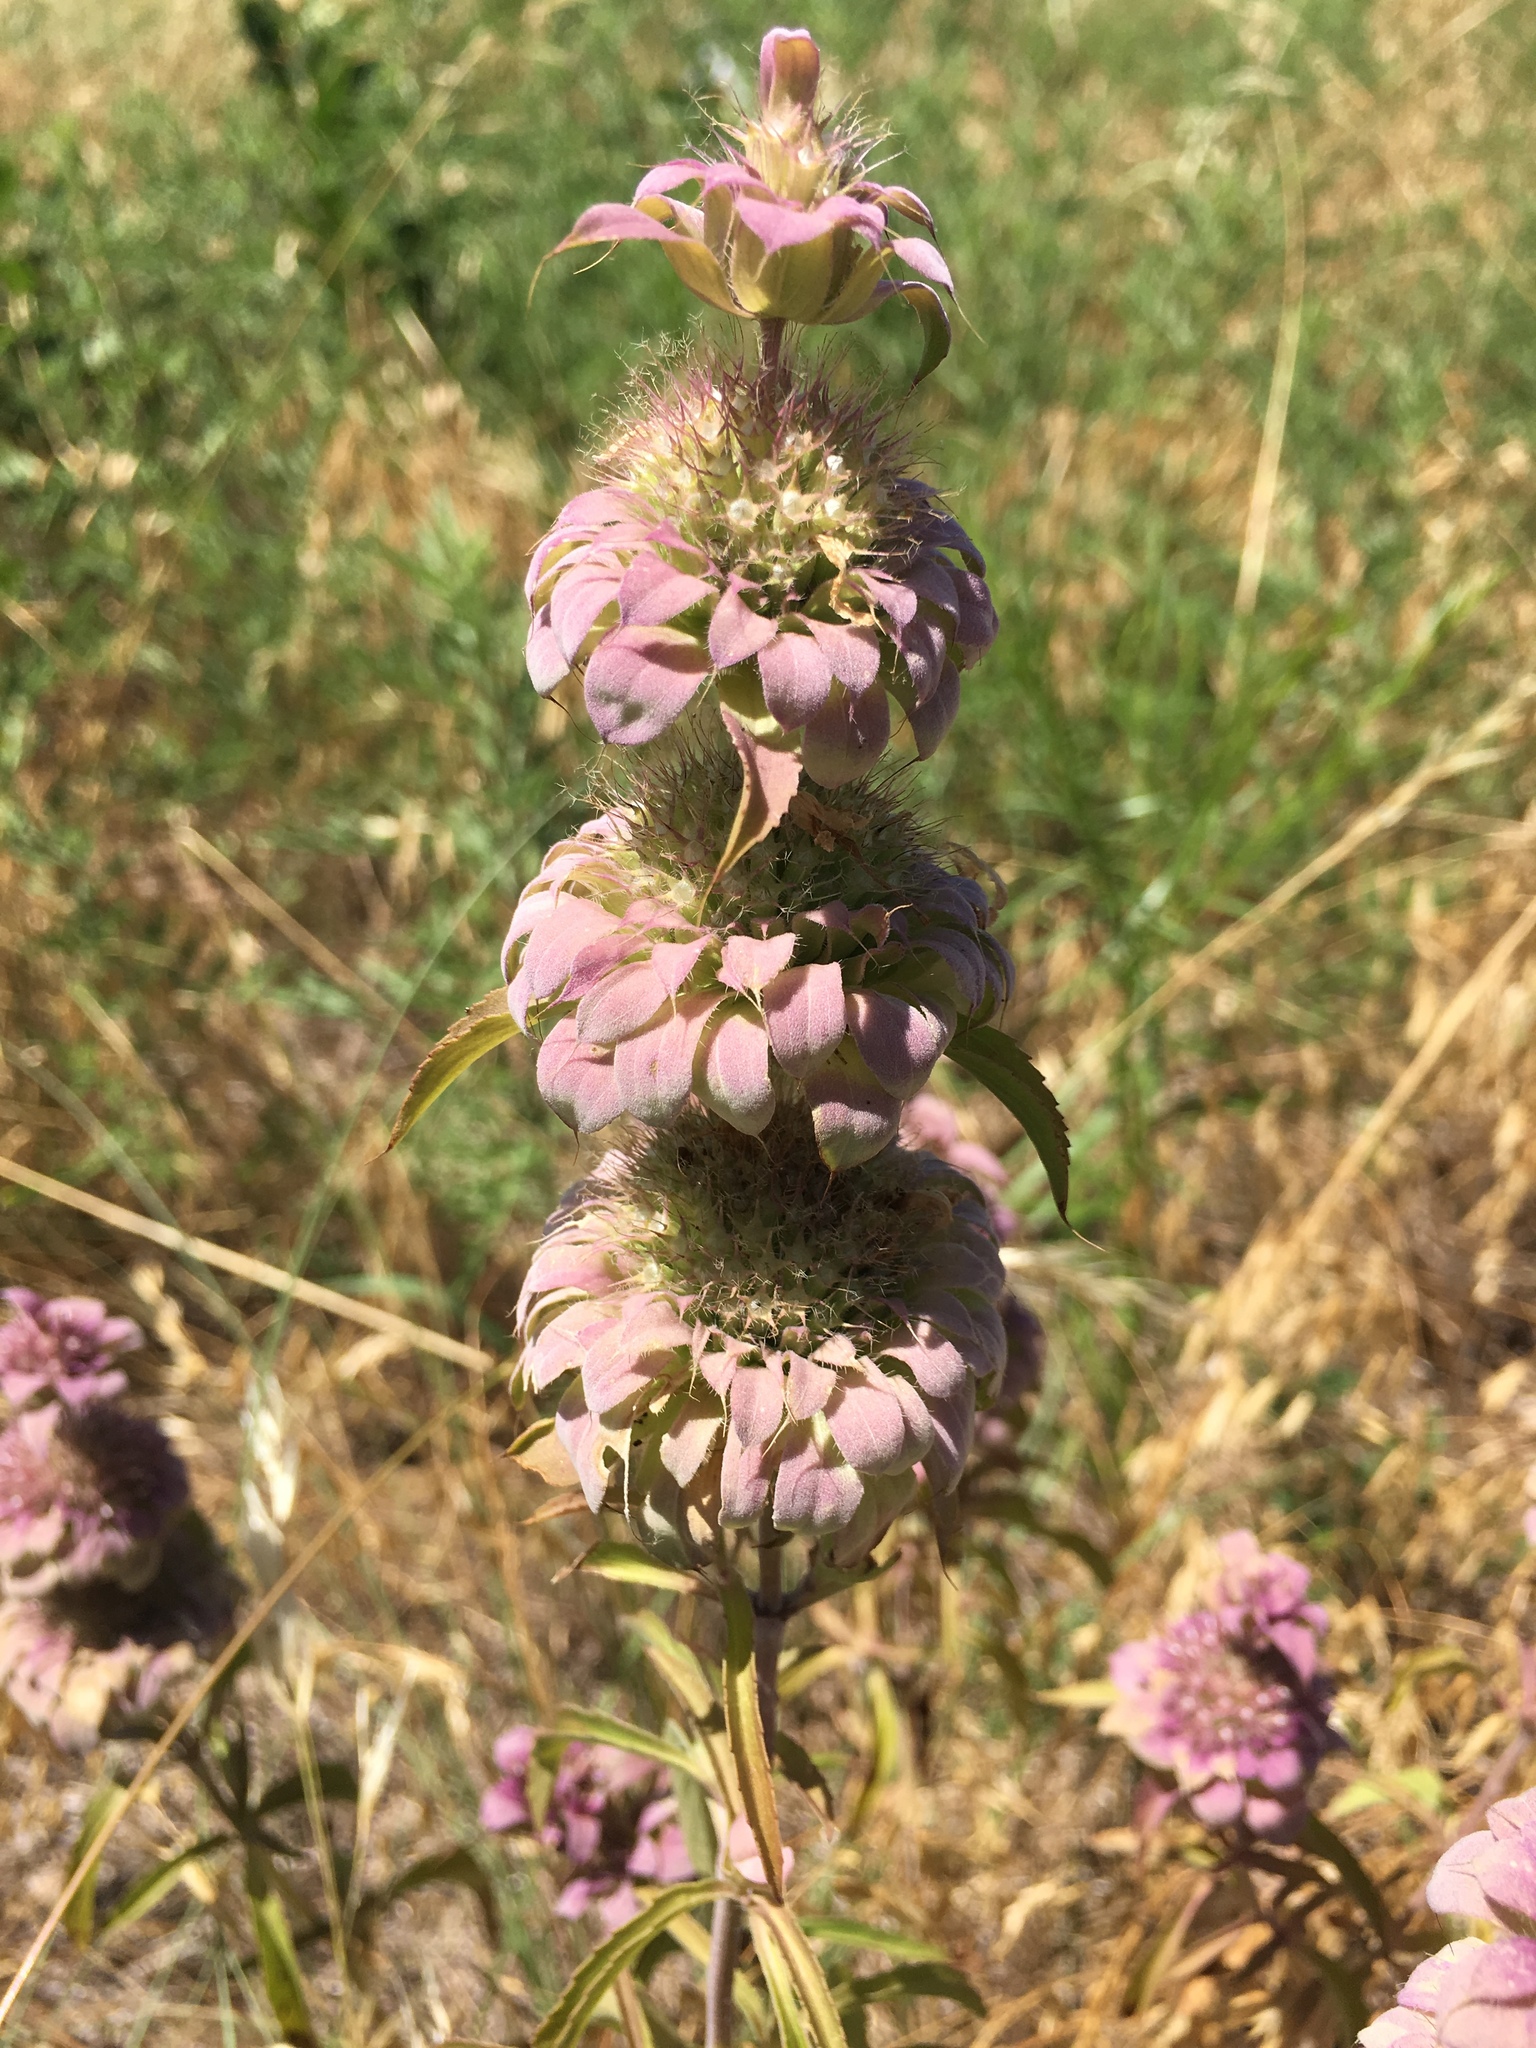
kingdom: Plantae
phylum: Tracheophyta
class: Magnoliopsida
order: Lamiales
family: Lamiaceae
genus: Monarda
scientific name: Monarda citriodora
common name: Lemon beebalm
